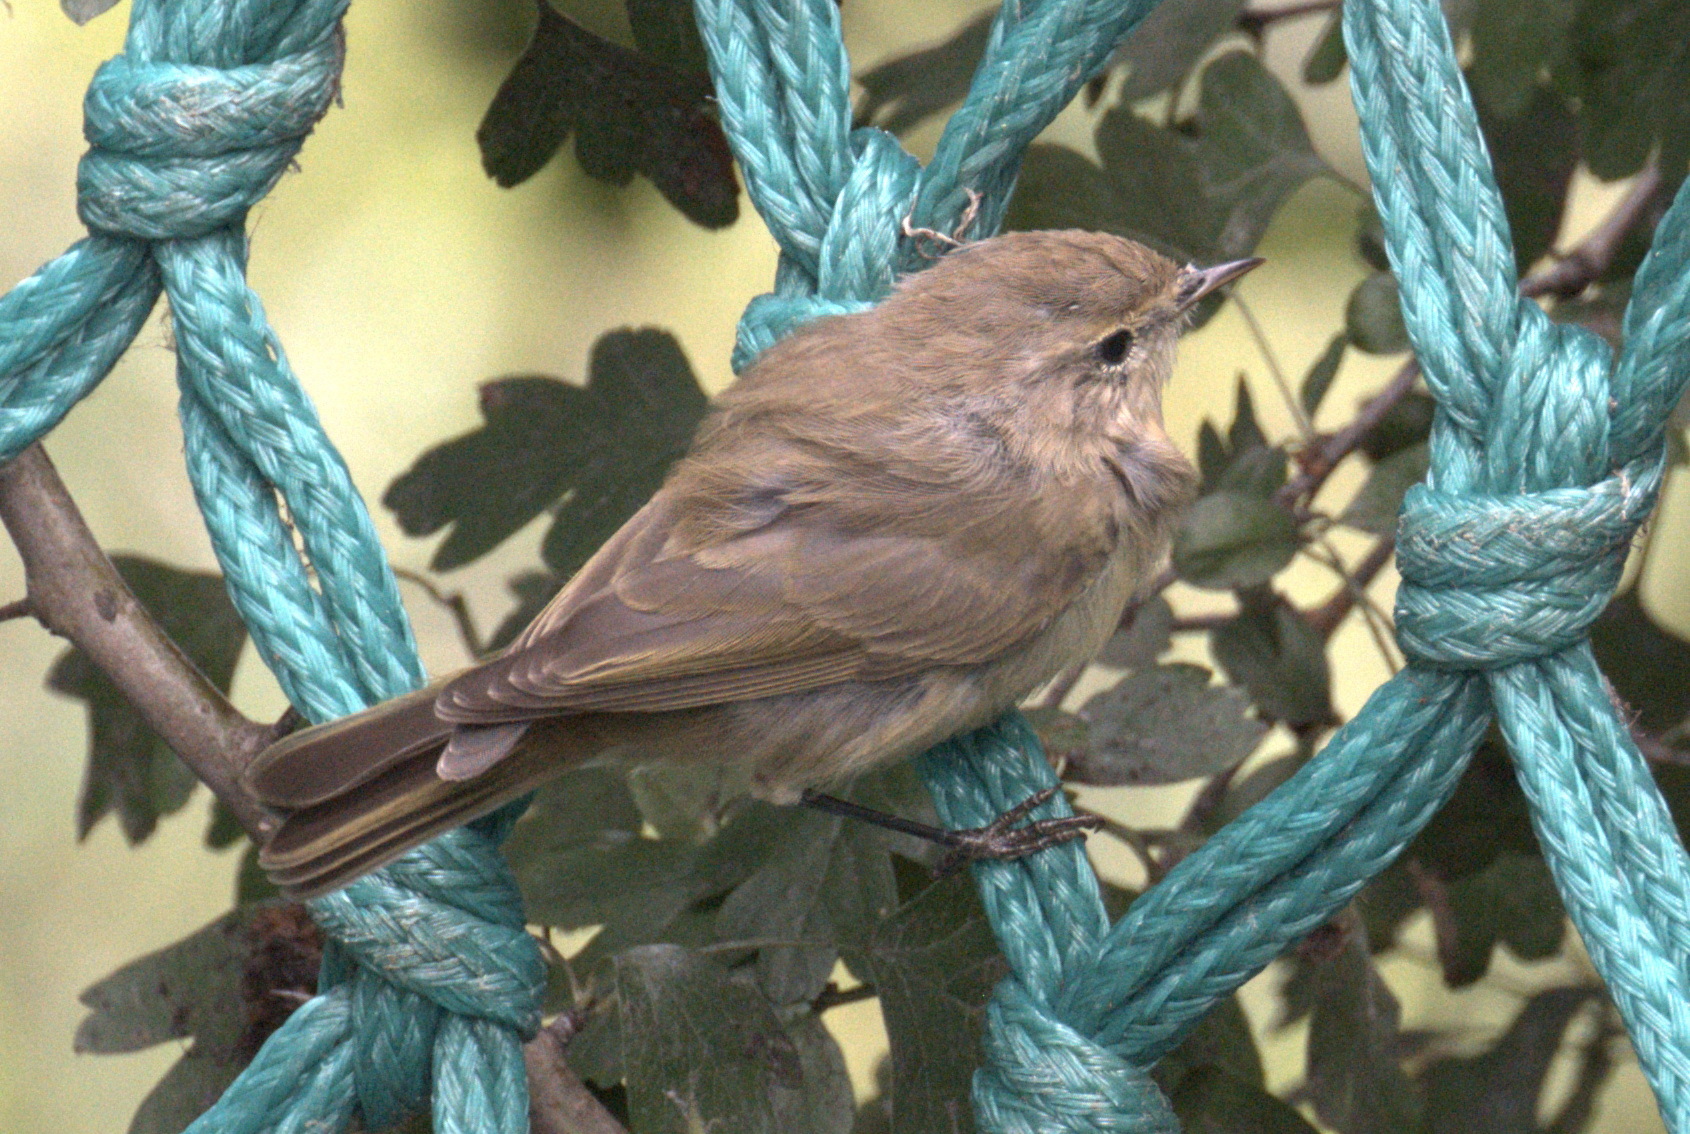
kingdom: Animalia
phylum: Chordata
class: Aves
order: Passeriformes
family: Phylloscopidae
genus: Phylloscopus
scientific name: Phylloscopus collybita
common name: Common chiffchaff
